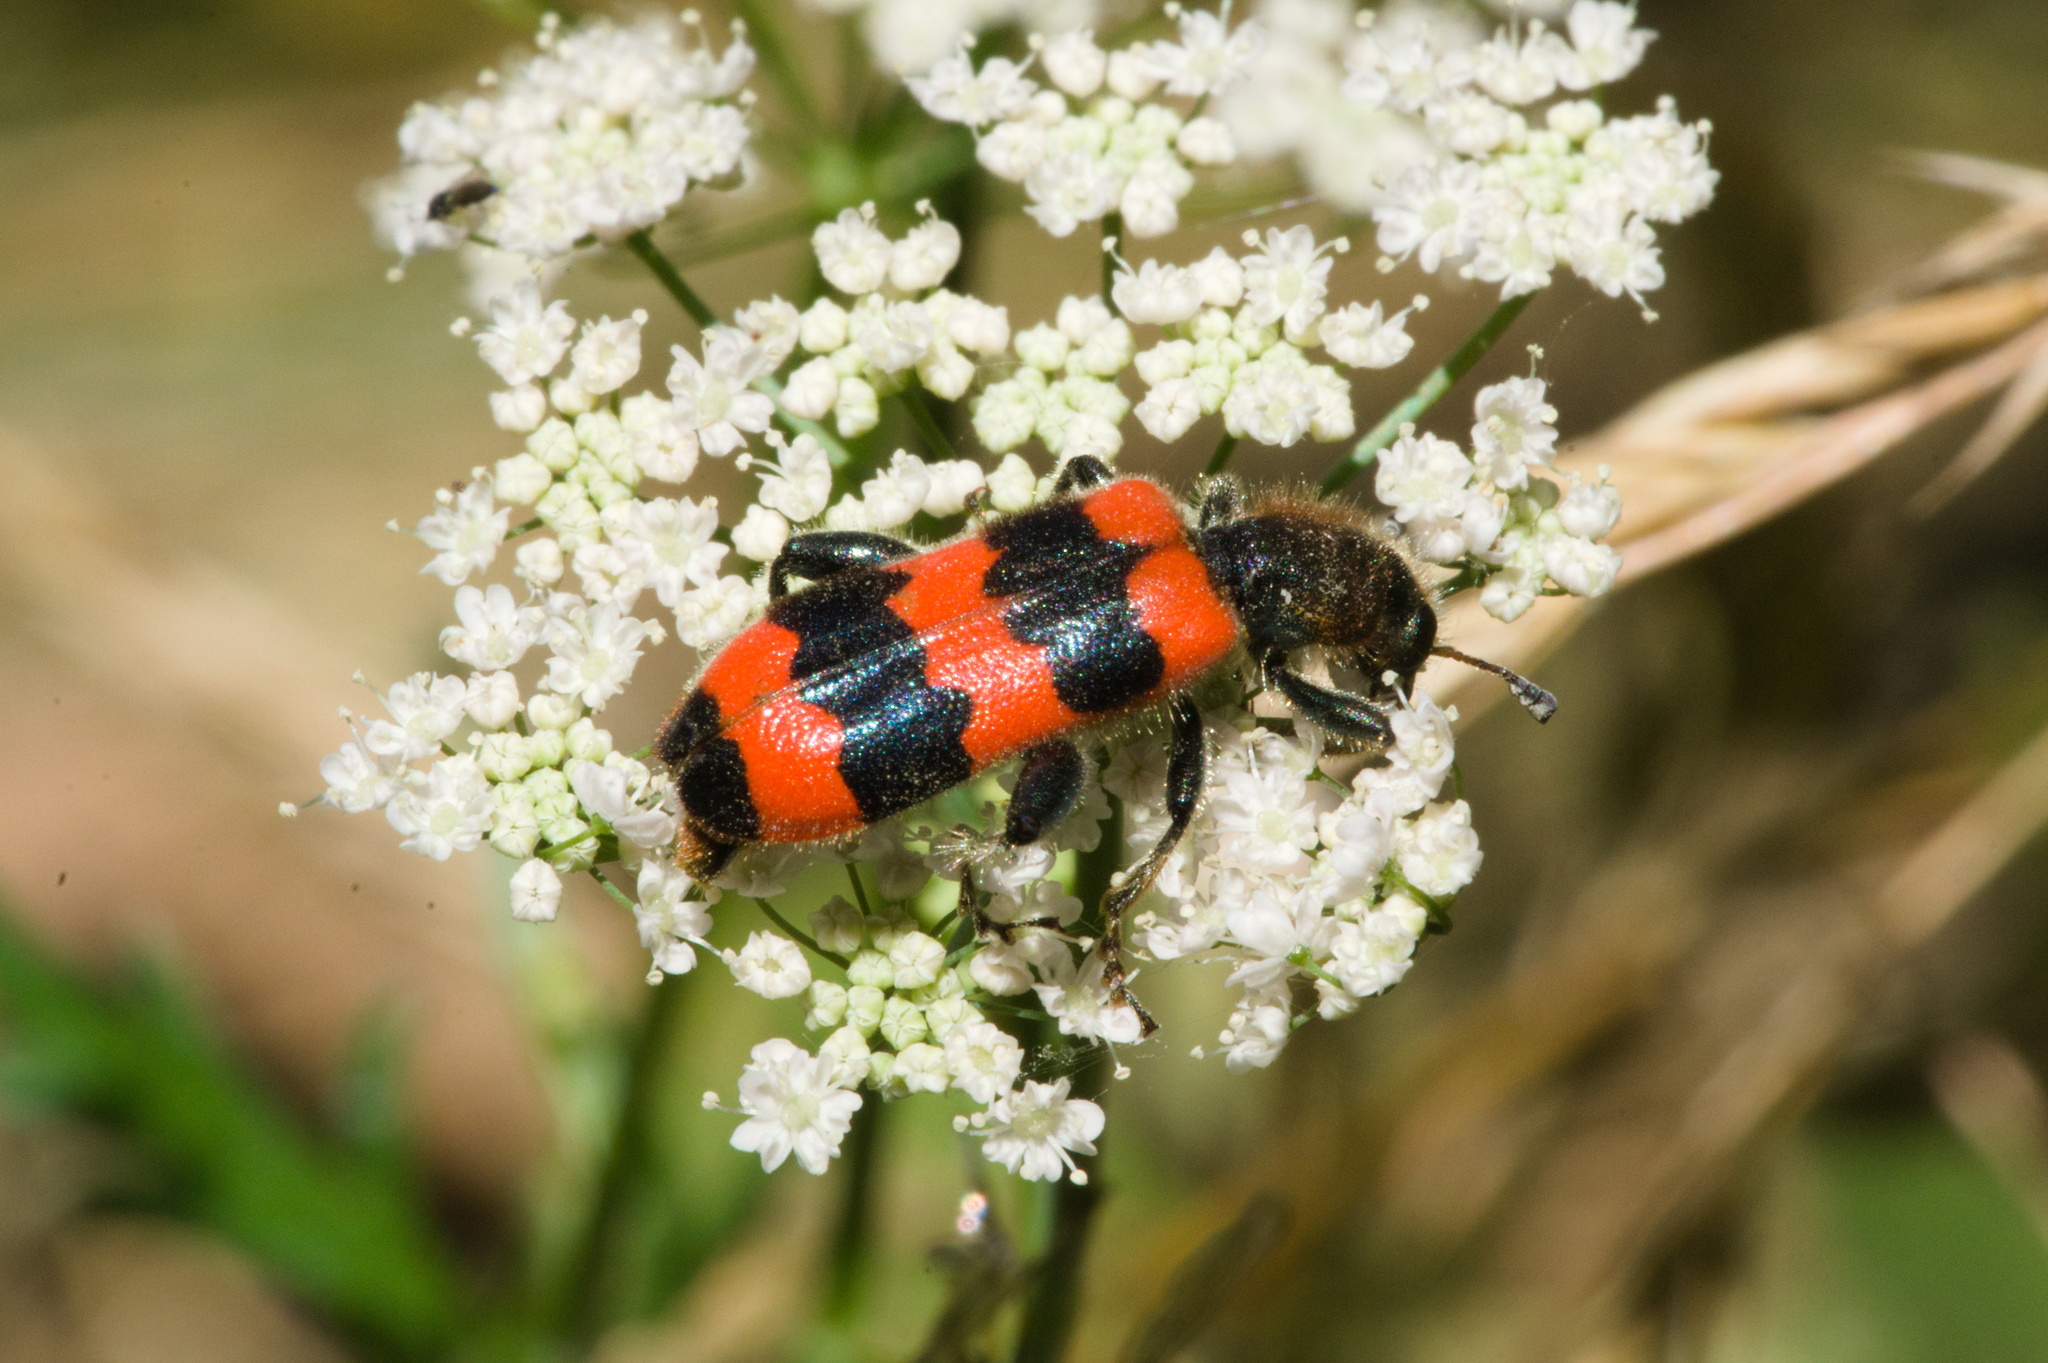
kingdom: Animalia
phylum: Arthropoda
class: Insecta
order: Coleoptera
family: Cleridae
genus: Trichodes
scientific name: Trichodes apiarius
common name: Bee-eating beetle
